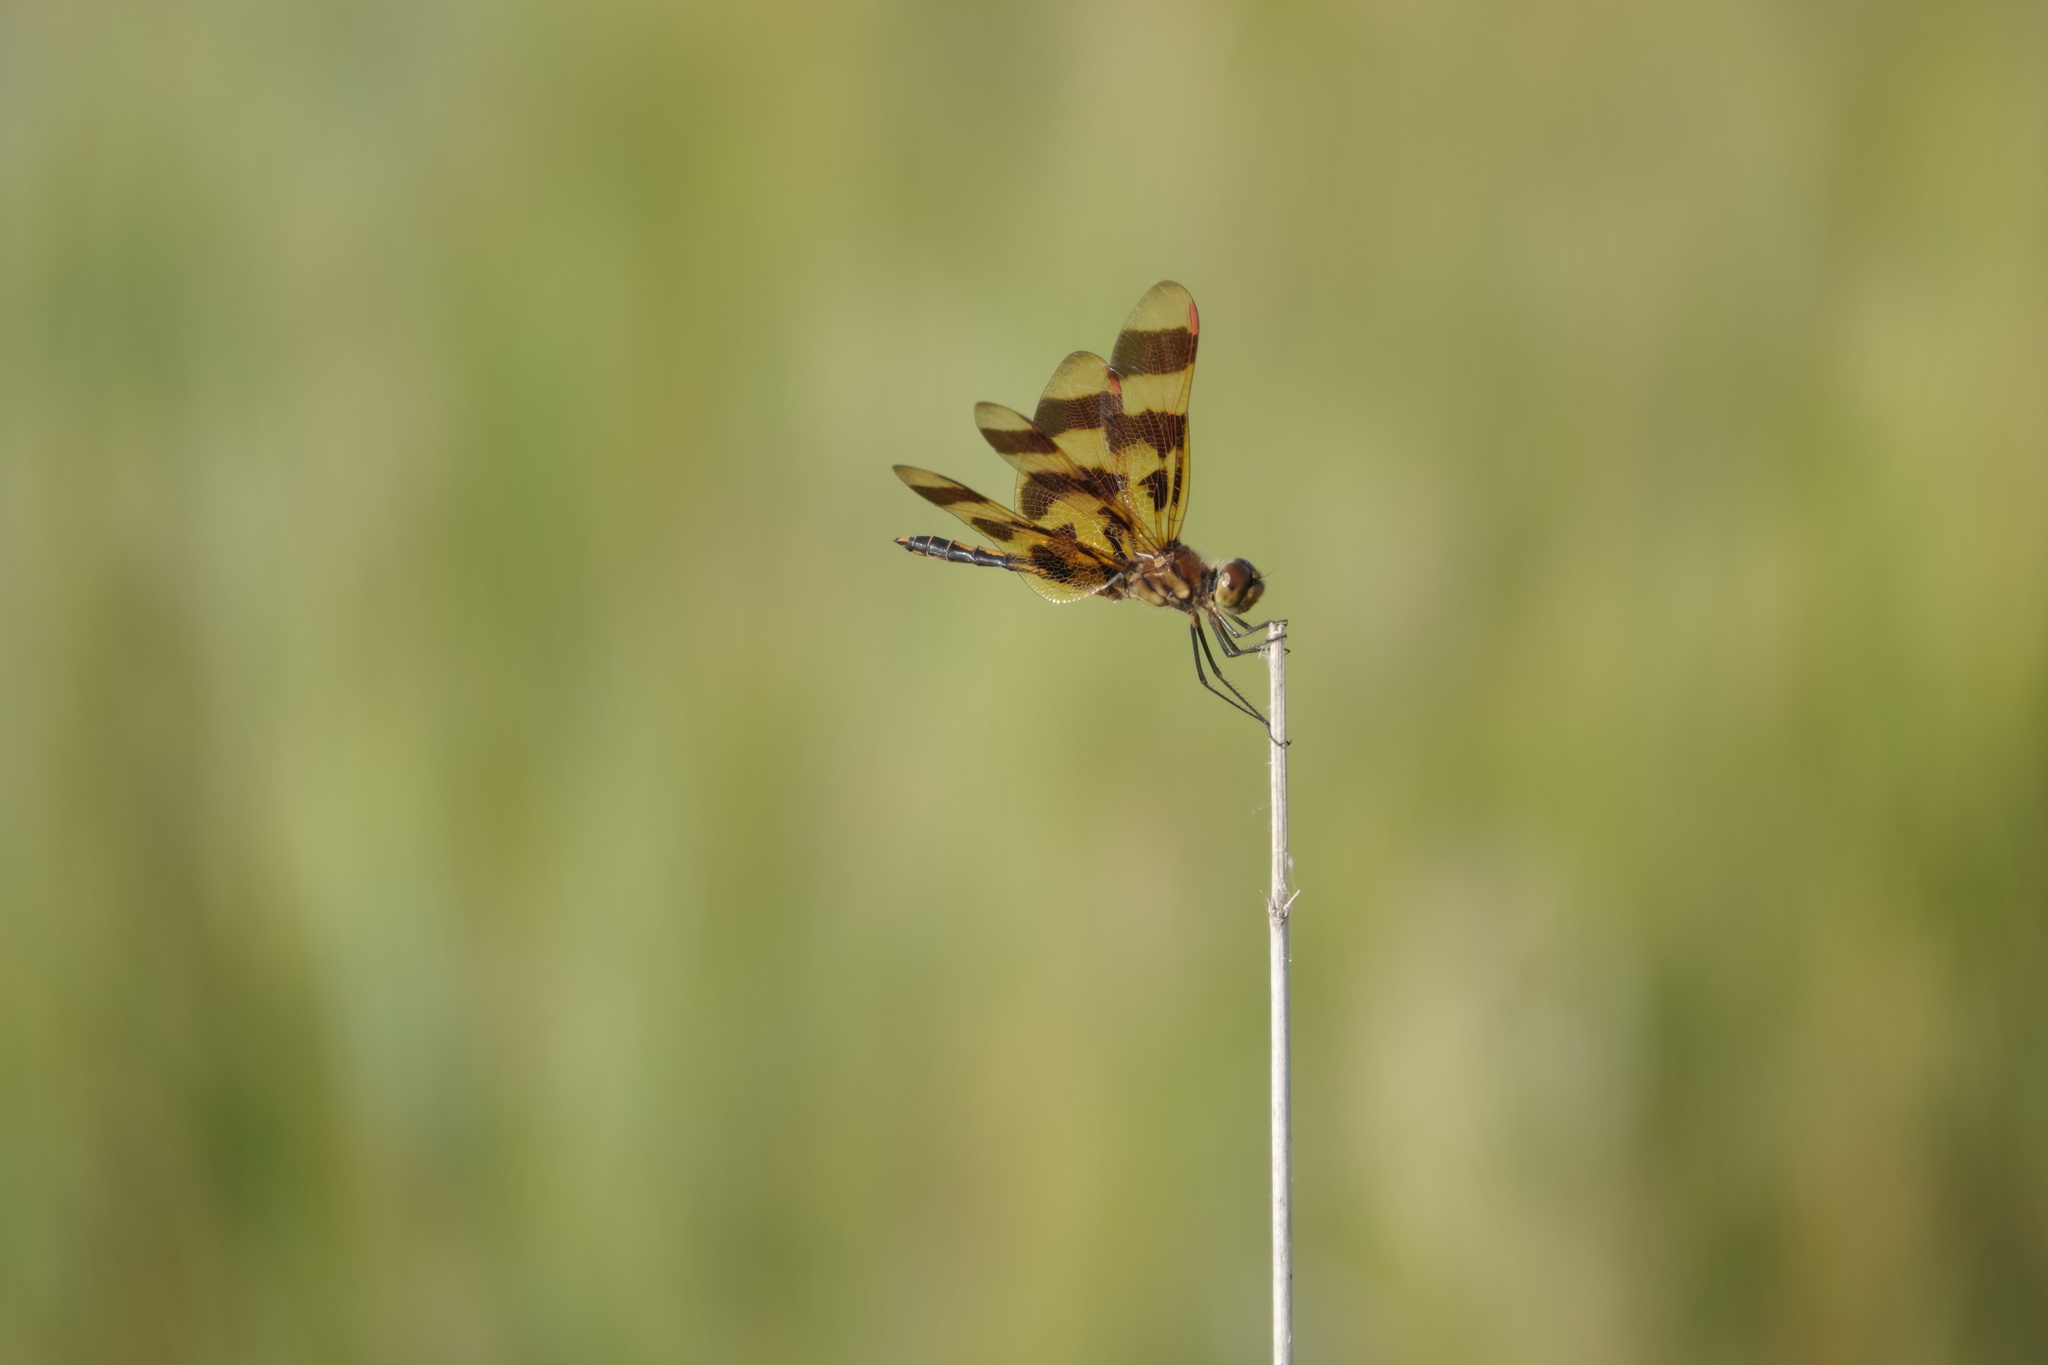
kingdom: Animalia
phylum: Arthropoda
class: Insecta
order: Odonata
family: Libellulidae
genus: Celithemis
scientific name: Celithemis eponina
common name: Halloween pennant
